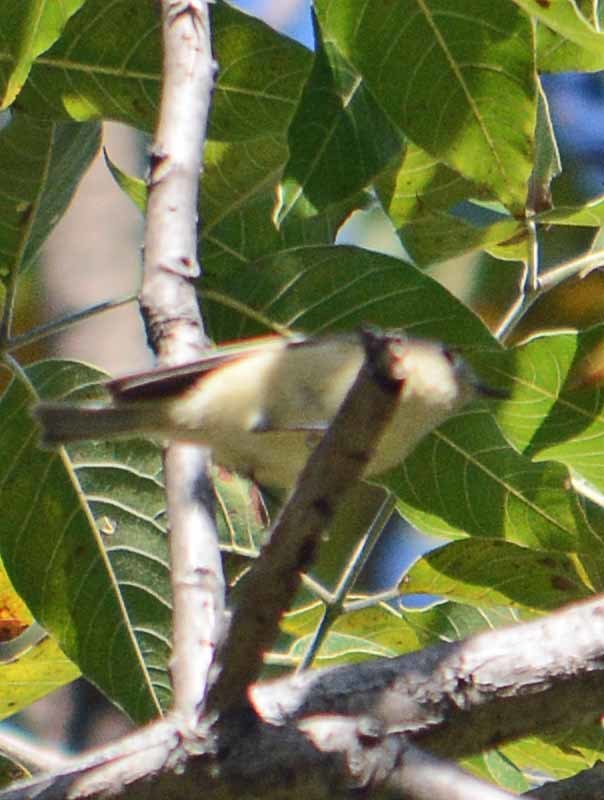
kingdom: Animalia
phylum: Chordata
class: Aves
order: Passeriformes
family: Regulidae
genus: Regulus
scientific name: Regulus calendula
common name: Ruby-crowned kinglet
